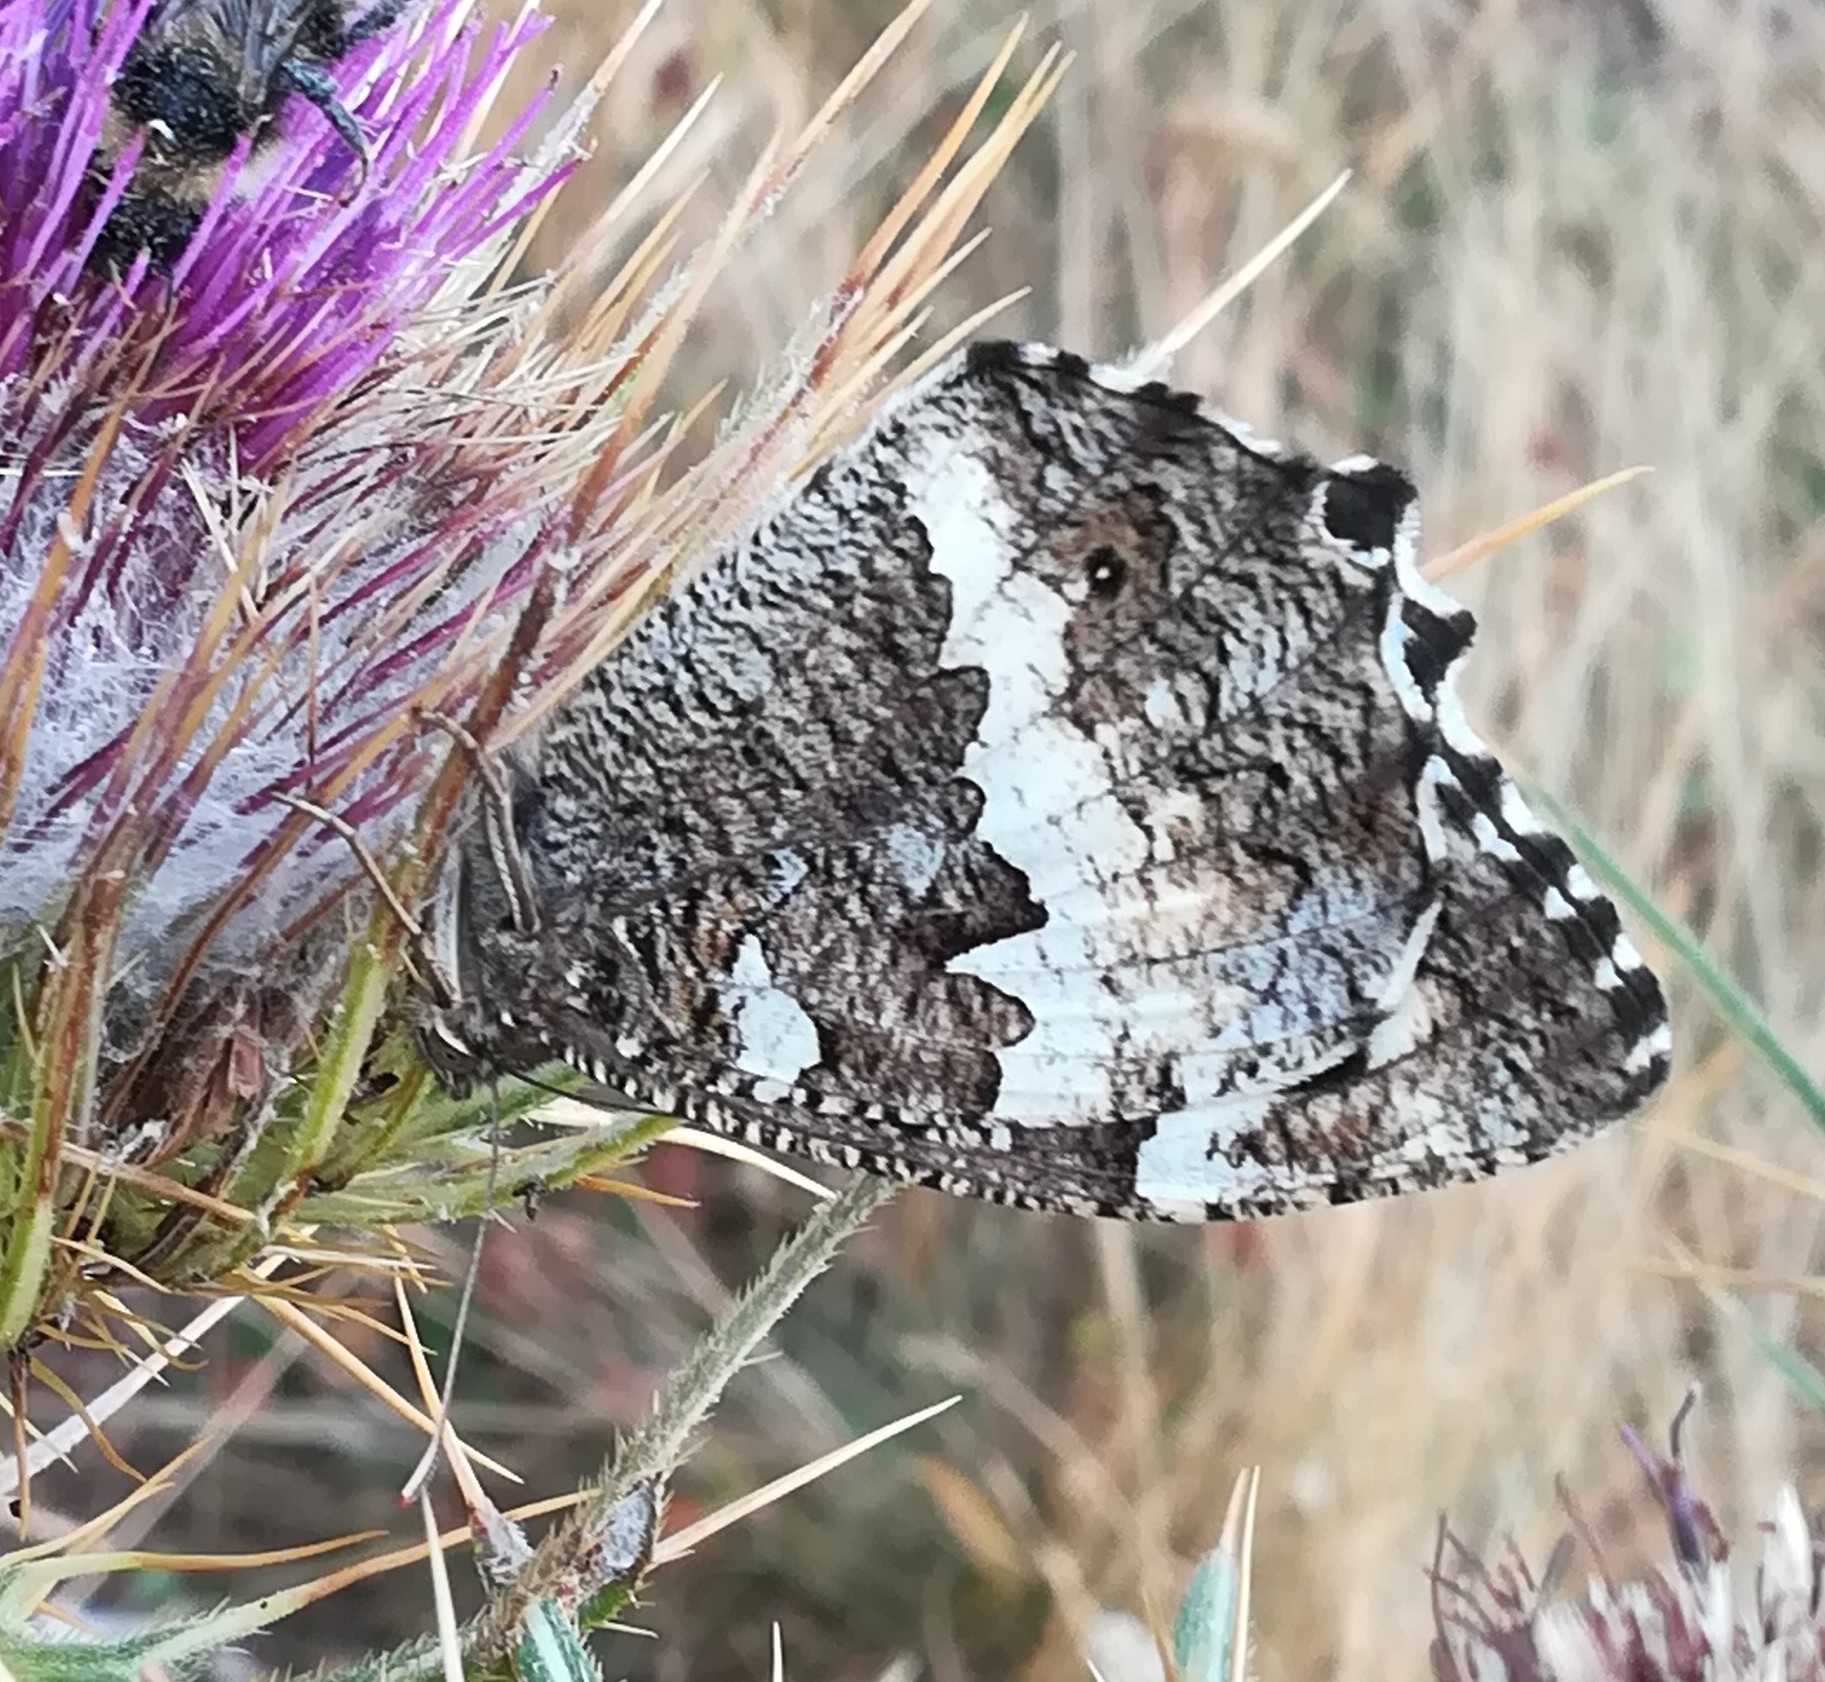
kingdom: Animalia
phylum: Arthropoda
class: Insecta
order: Lepidoptera
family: Lycaenidae
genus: Loweia
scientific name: Loweia tityrus
